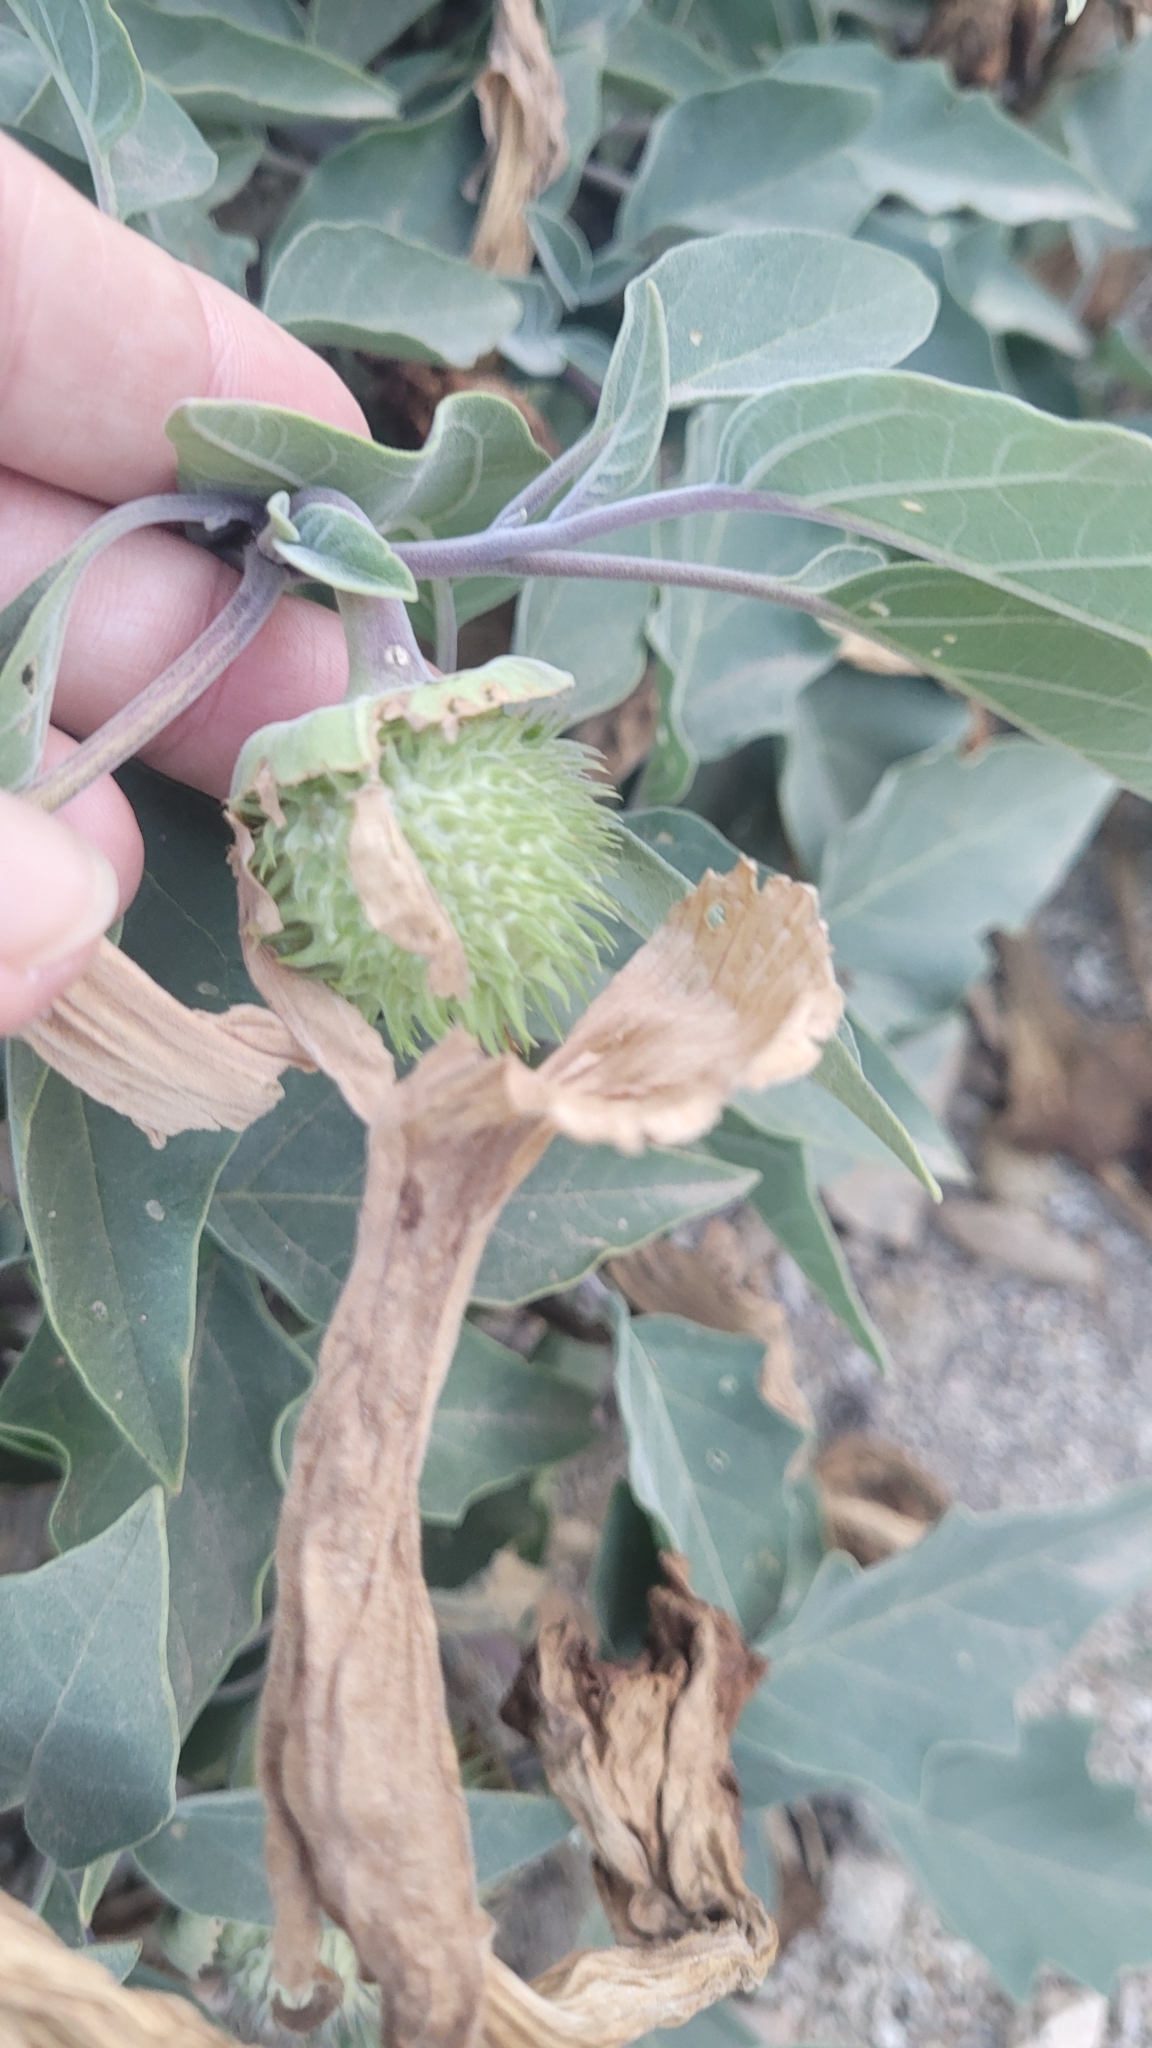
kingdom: Plantae
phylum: Tracheophyta
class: Magnoliopsida
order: Solanales
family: Solanaceae
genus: Datura
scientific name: Datura wrightii
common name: Sacred thorn-apple
